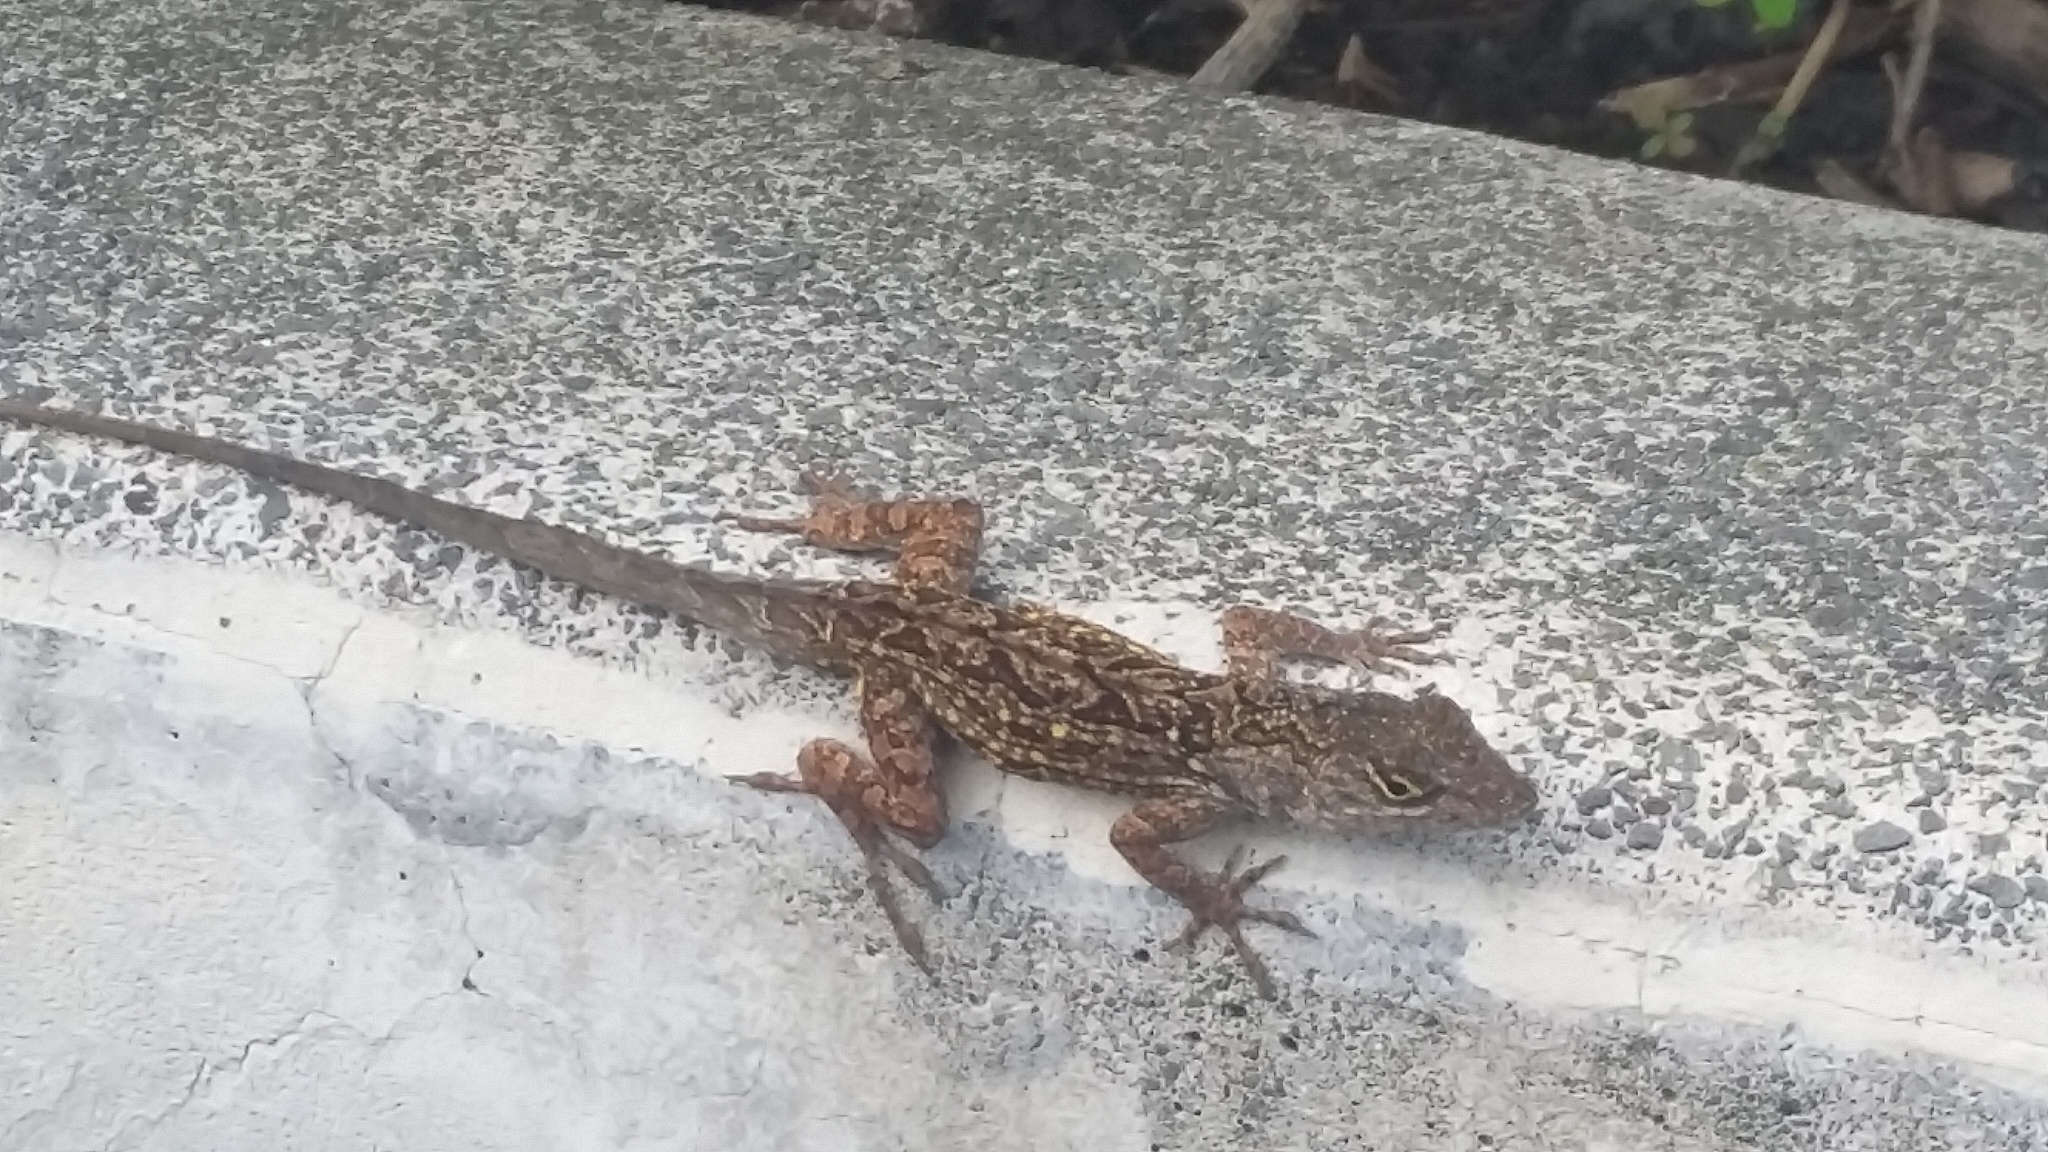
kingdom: Animalia
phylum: Chordata
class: Squamata
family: Dactyloidae
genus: Anolis
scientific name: Anolis sagrei
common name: Brown anole
